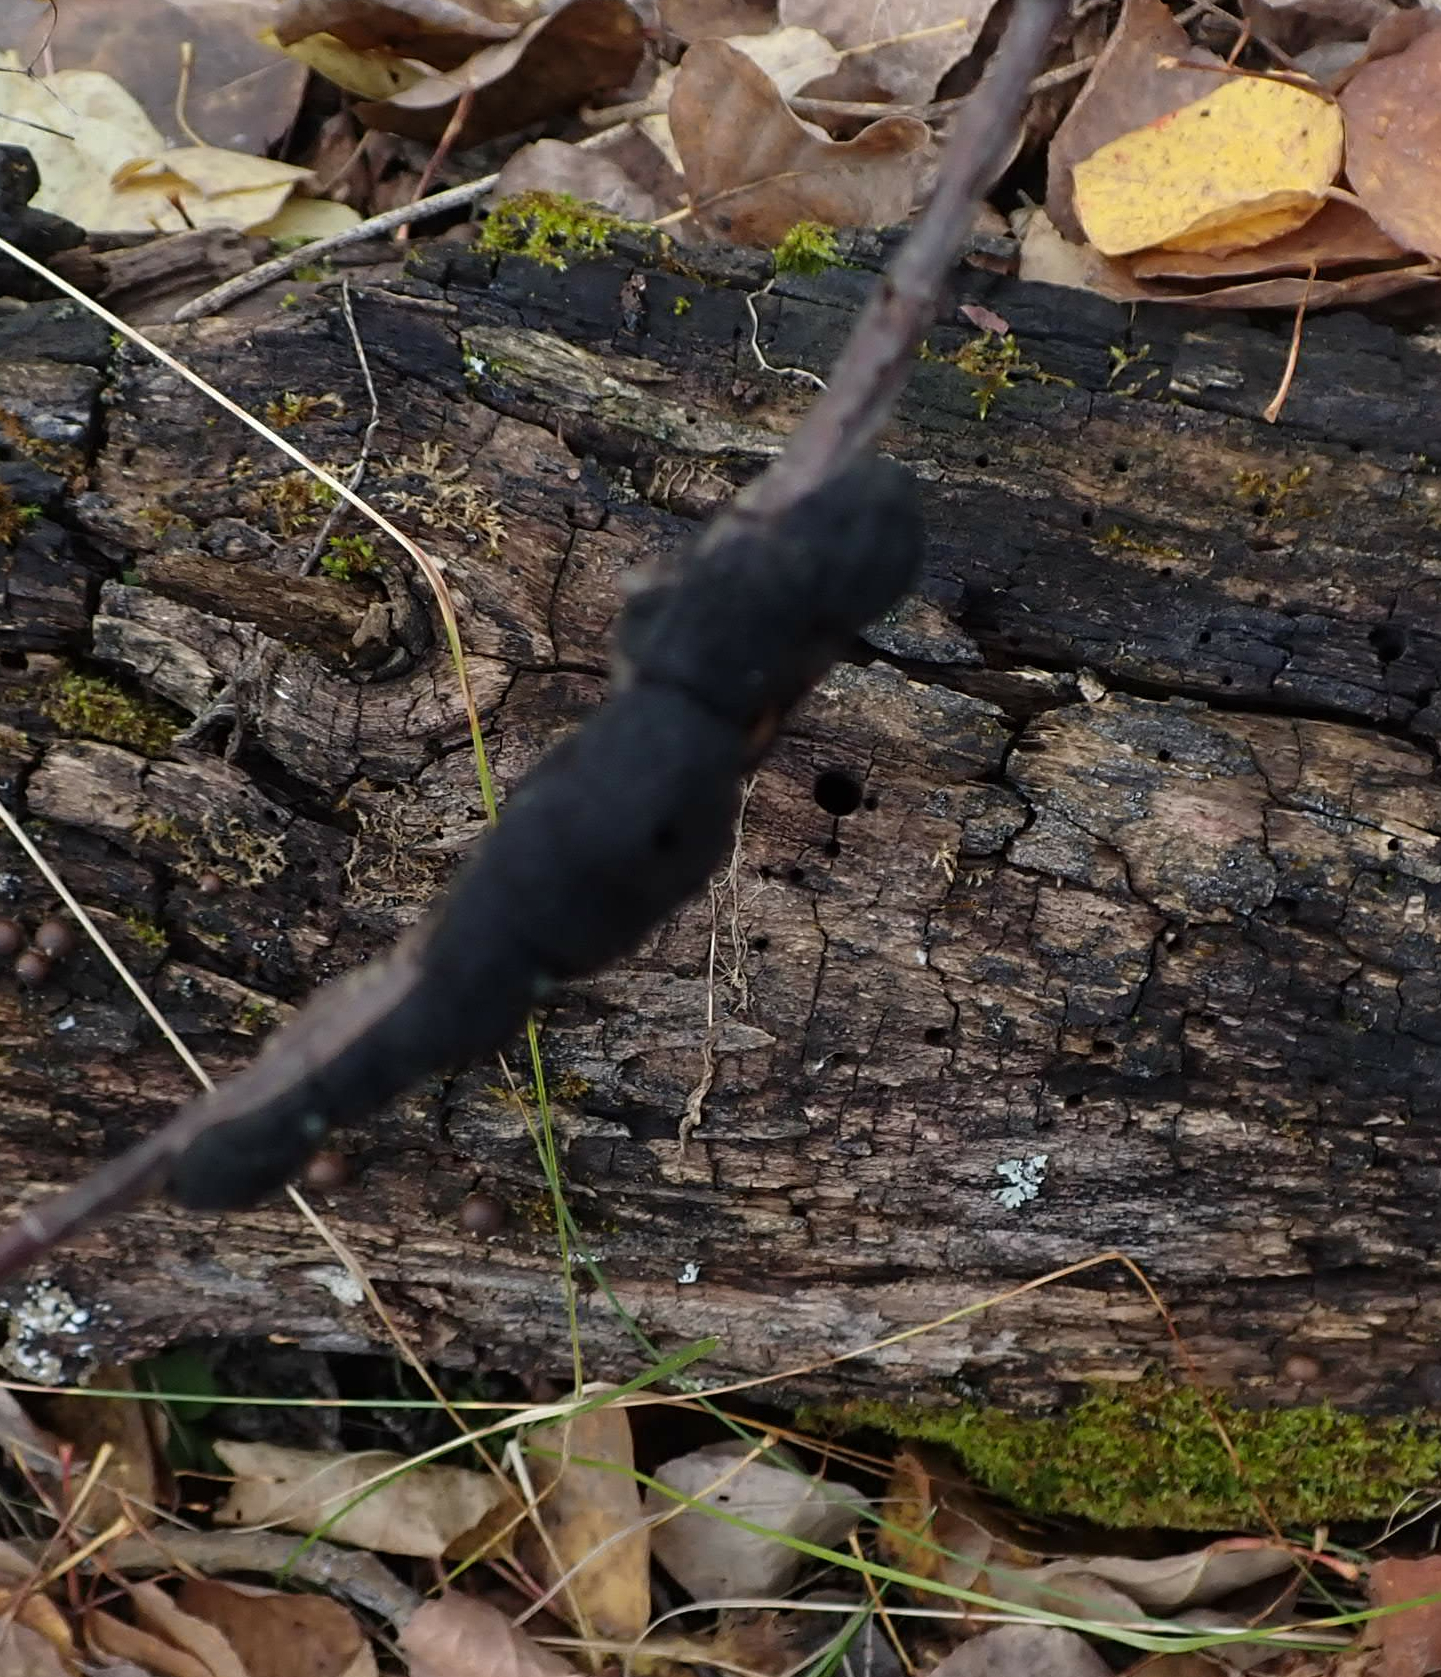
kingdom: Fungi
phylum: Ascomycota
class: Dothideomycetes
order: Venturiales
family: Venturiaceae
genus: Apiosporina
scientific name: Apiosporina morbosa
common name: Black knot
